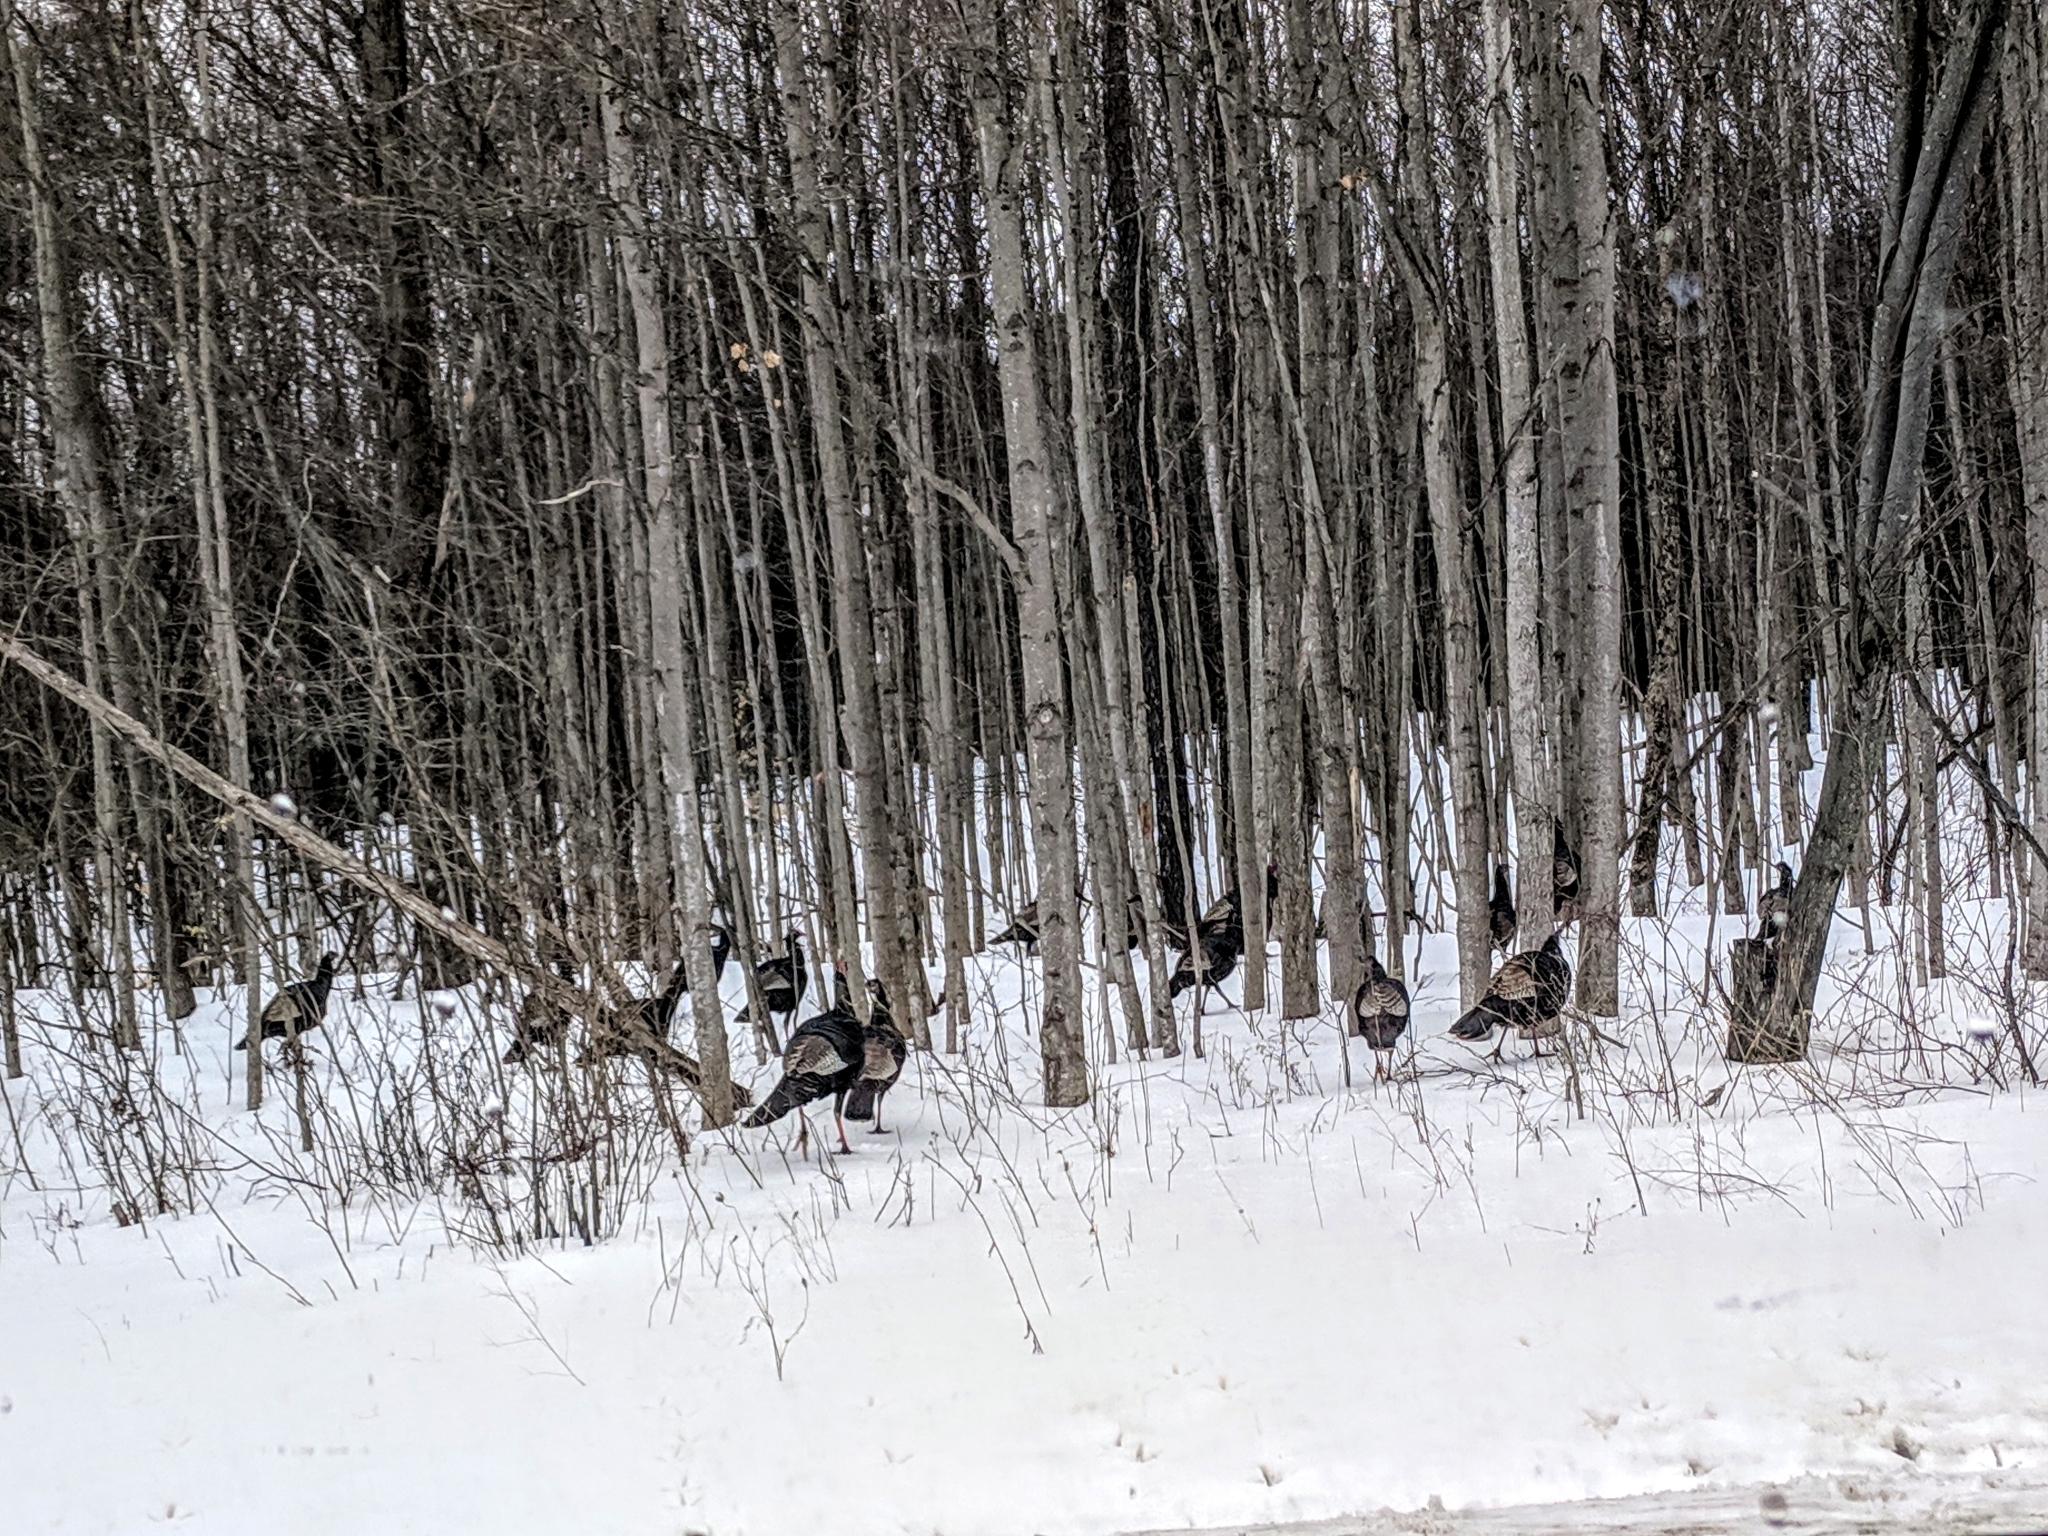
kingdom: Animalia
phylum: Chordata
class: Aves
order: Galliformes
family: Phasianidae
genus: Meleagris
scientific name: Meleagris gallopavo
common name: Wild turkey
